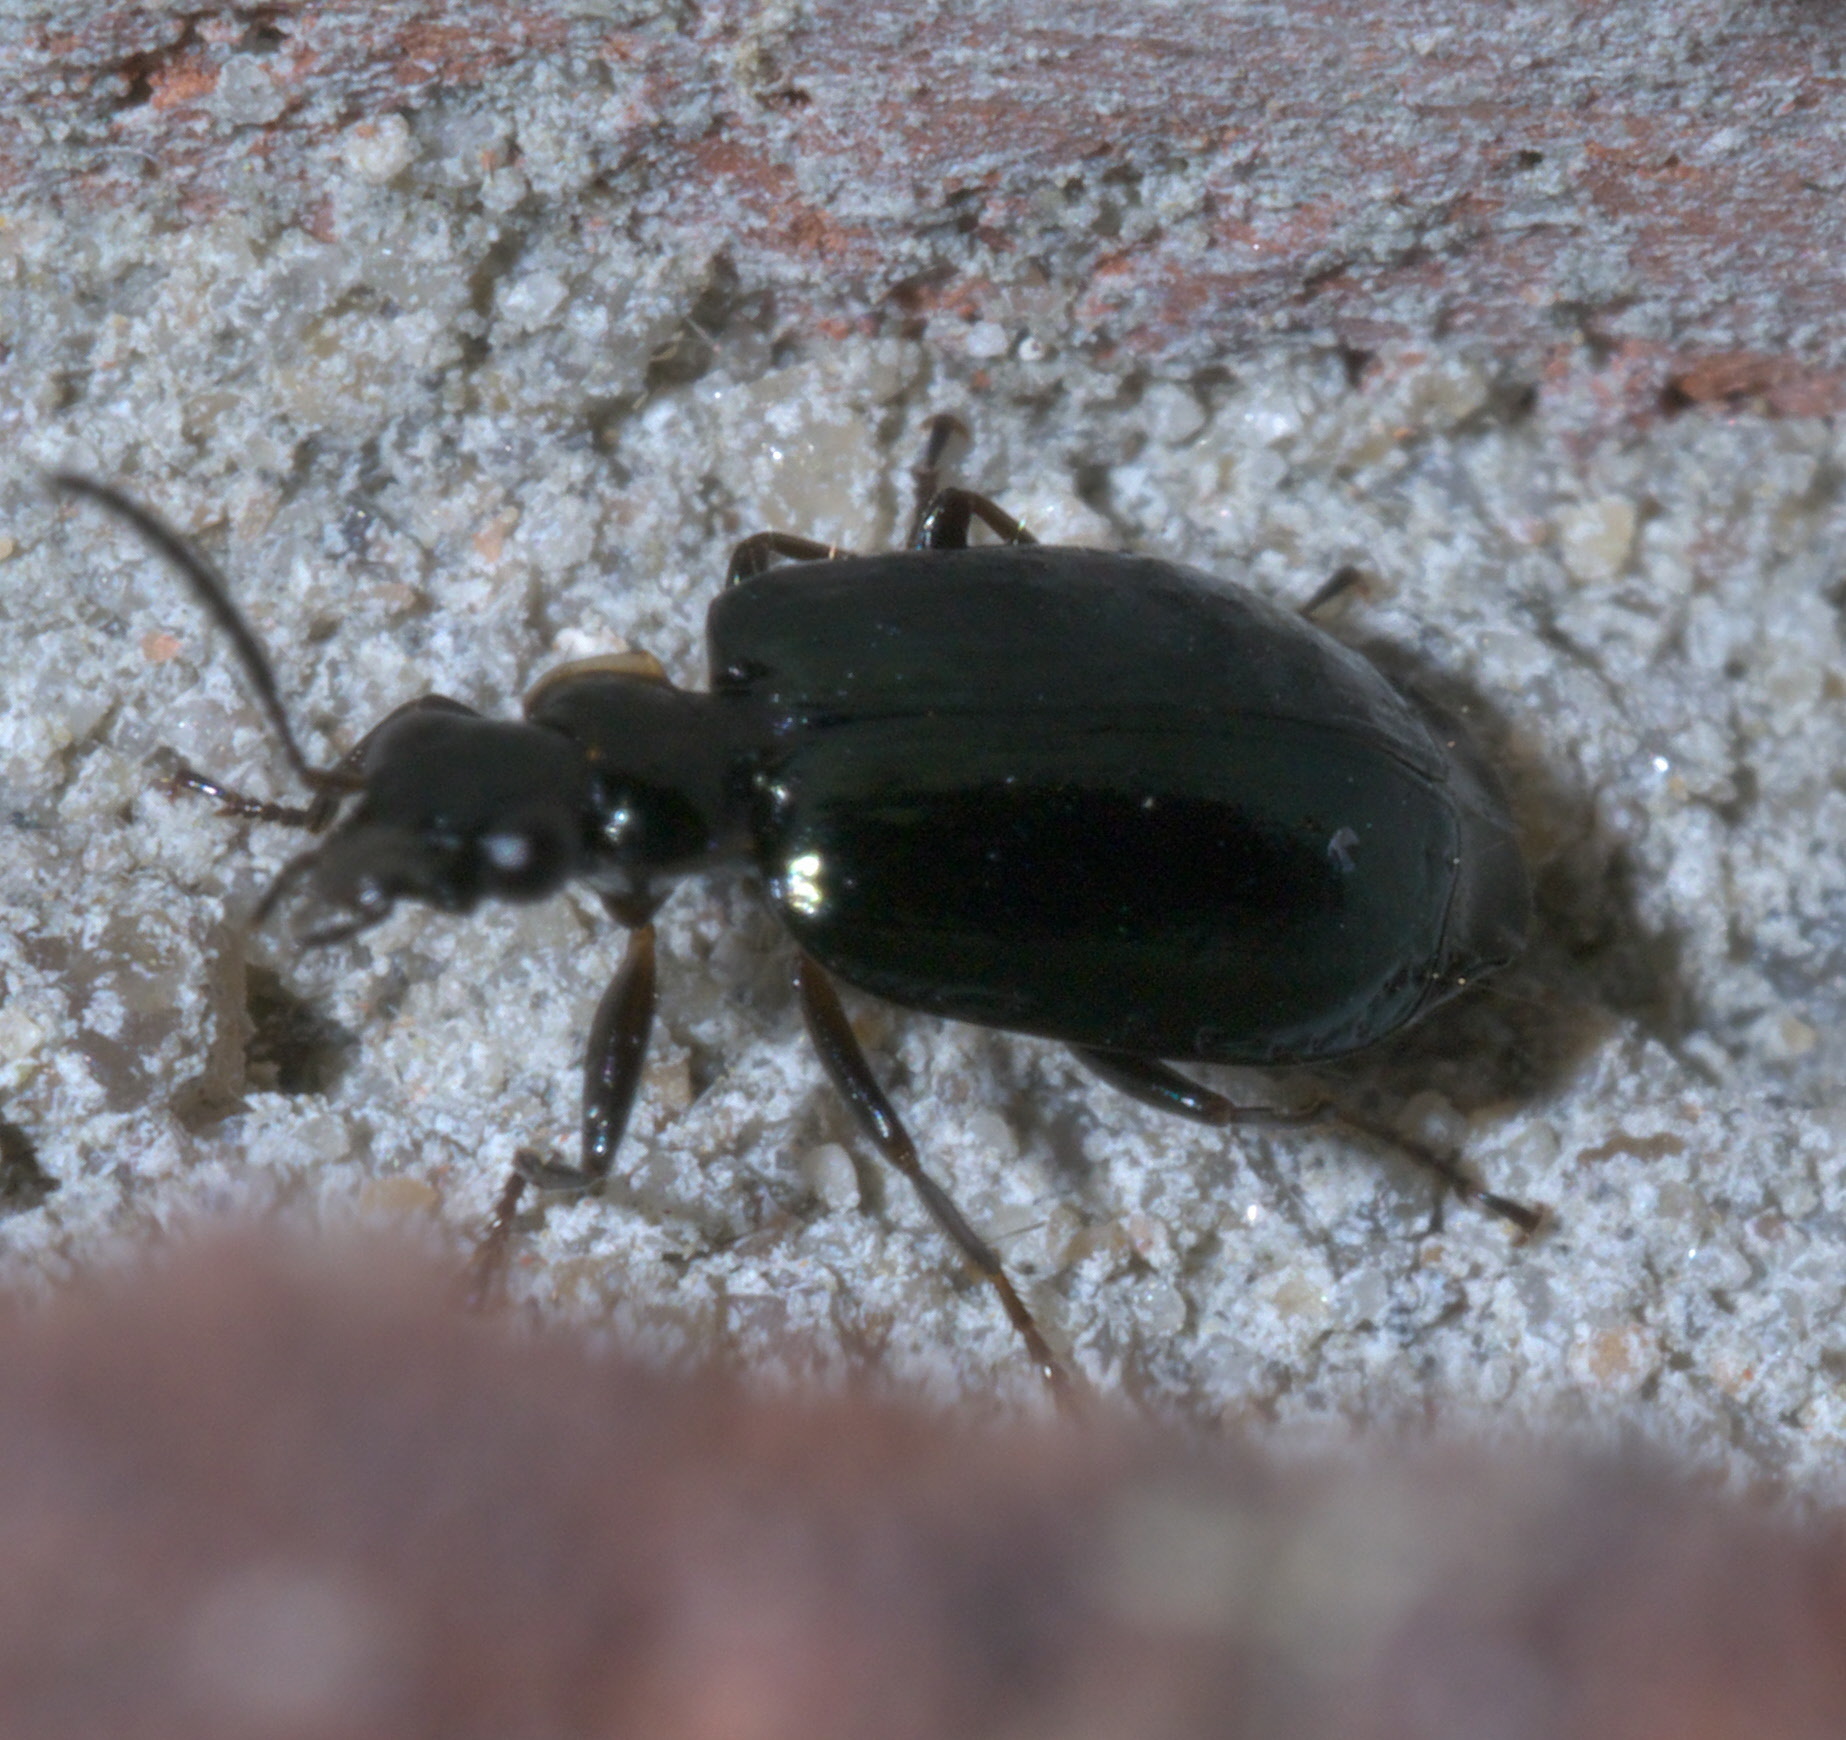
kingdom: Animalia
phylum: Arthropoda
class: Insecta
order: Coleoptera
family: Carabidae
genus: Lebia
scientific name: Lebia marginicollis
